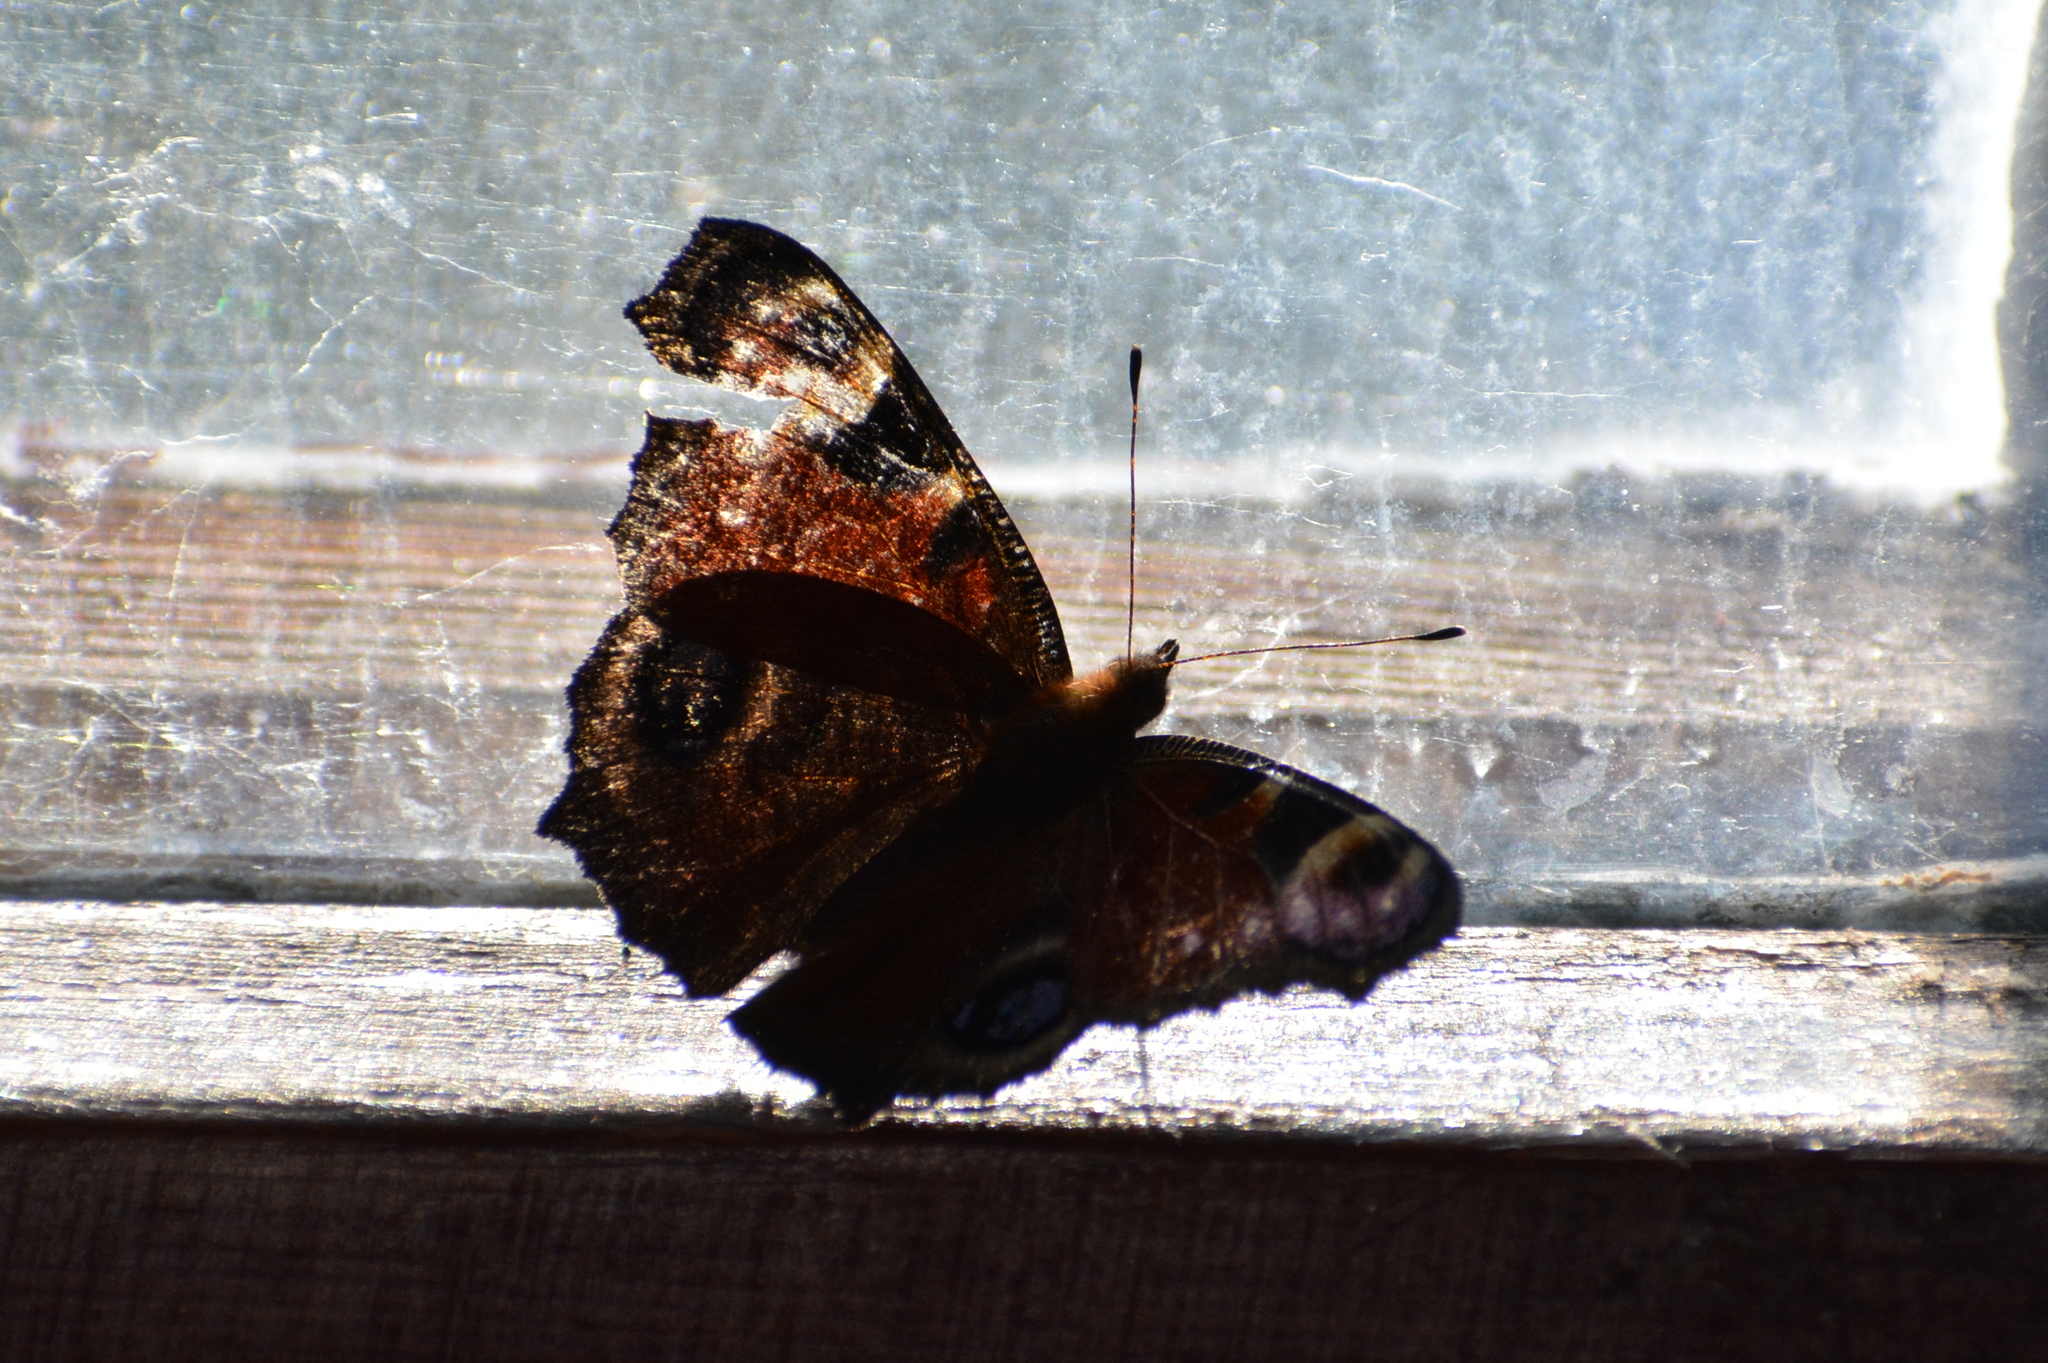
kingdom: Animalia
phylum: Arthropoda
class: Insecta
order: Lepidoptera
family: Nymphalidae
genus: Aglais
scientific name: Aglais io
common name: Peacock
